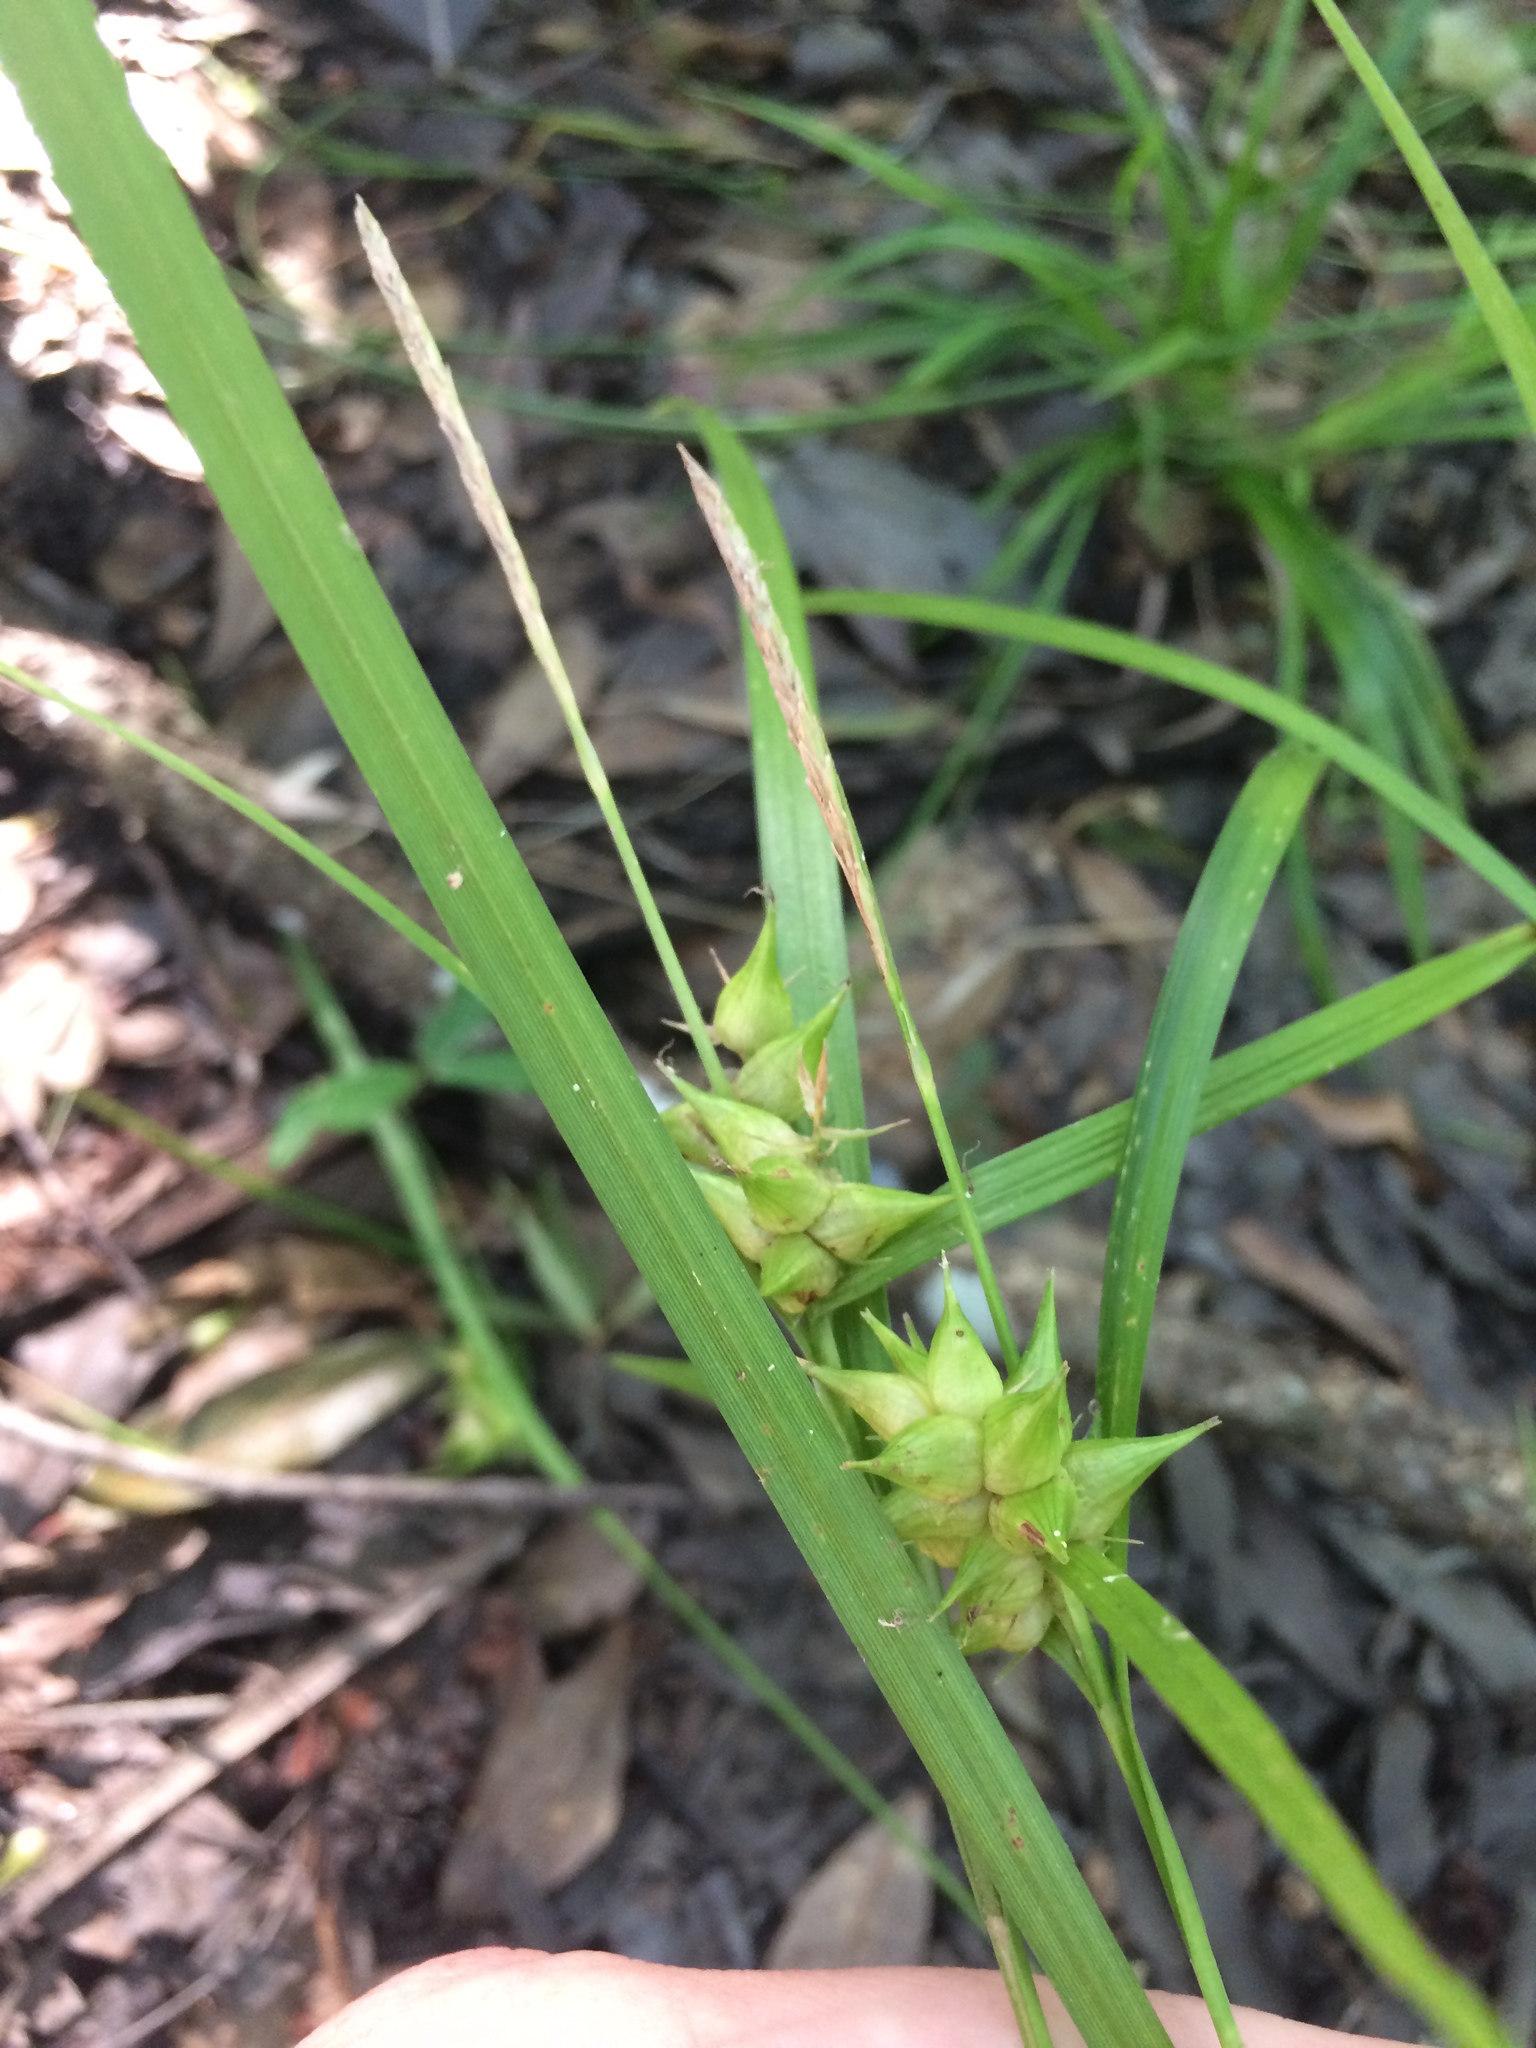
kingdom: Plantae
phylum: Tracheophyta
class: Liliopsida
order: Poales
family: Cyperaceae
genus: Carex
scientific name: Carex intumescens
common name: Greater bladder sedge
